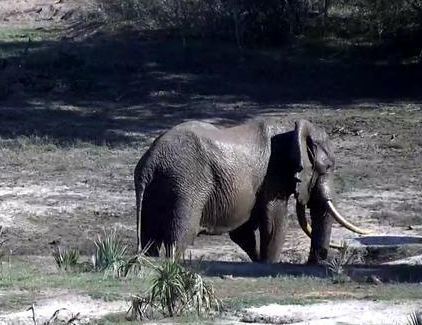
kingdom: Animalia
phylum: Chordata
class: Mammalia
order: Proboscidea
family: Elephantidae
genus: Loxodonta
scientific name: Loxodonta africana
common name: African elephant
